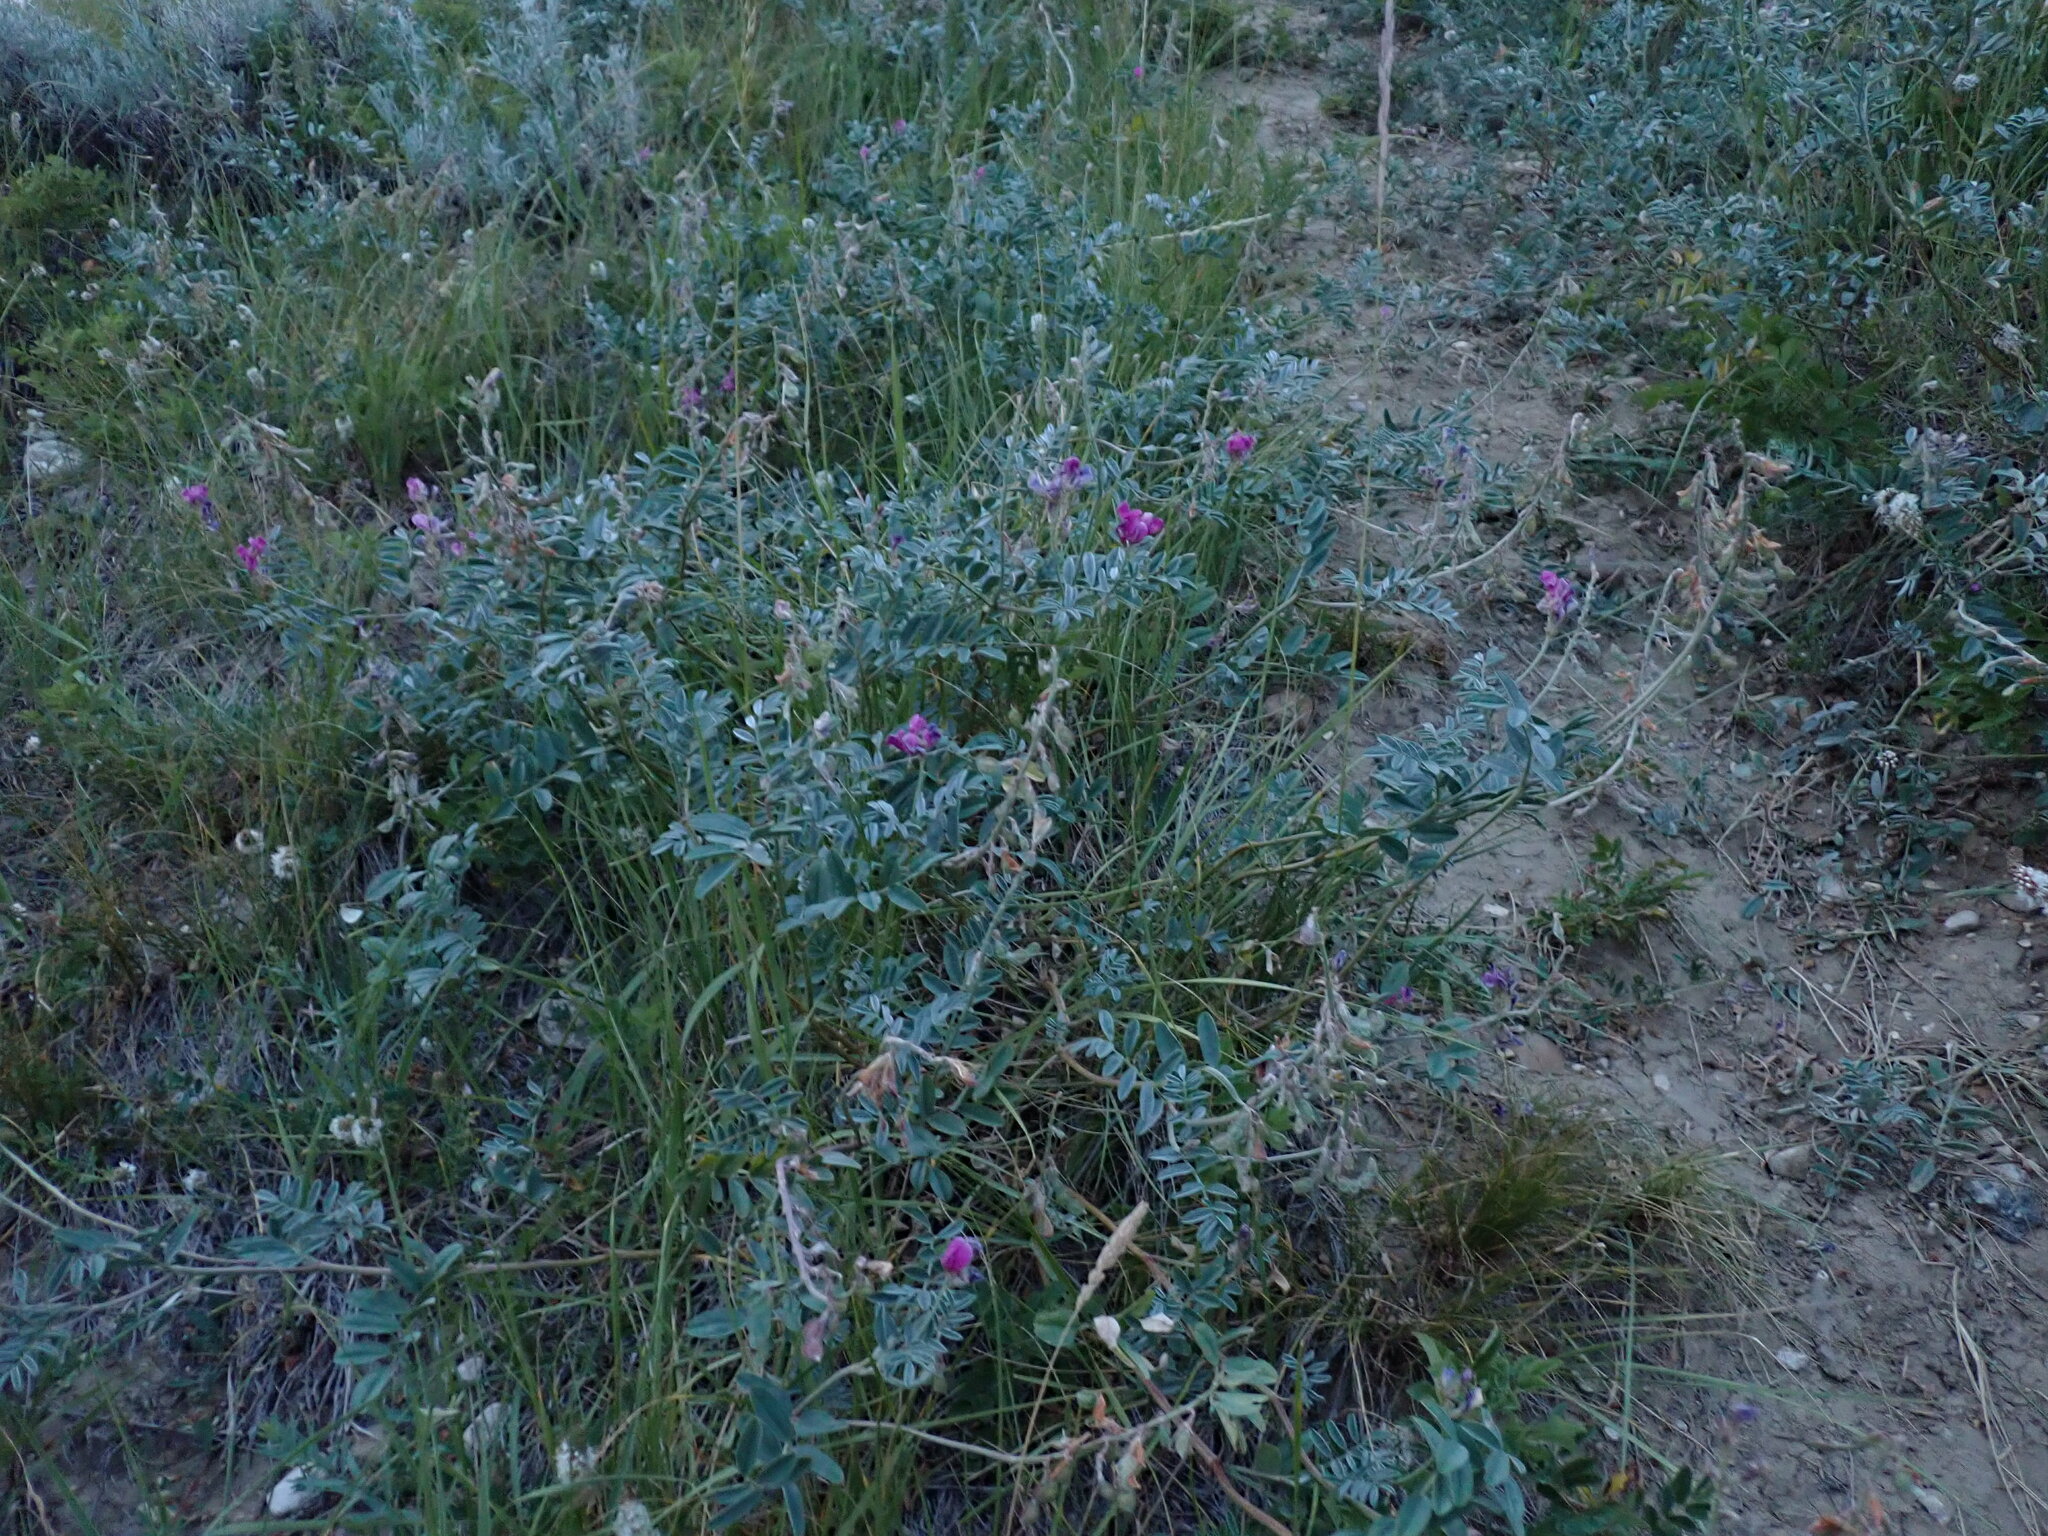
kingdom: Plantae
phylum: Tracheophyta
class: Magnoliopsida
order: Asterales
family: Asteraceae
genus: Ericameria
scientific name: Ericameria nauseosa
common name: Rubber rabbitbrush
